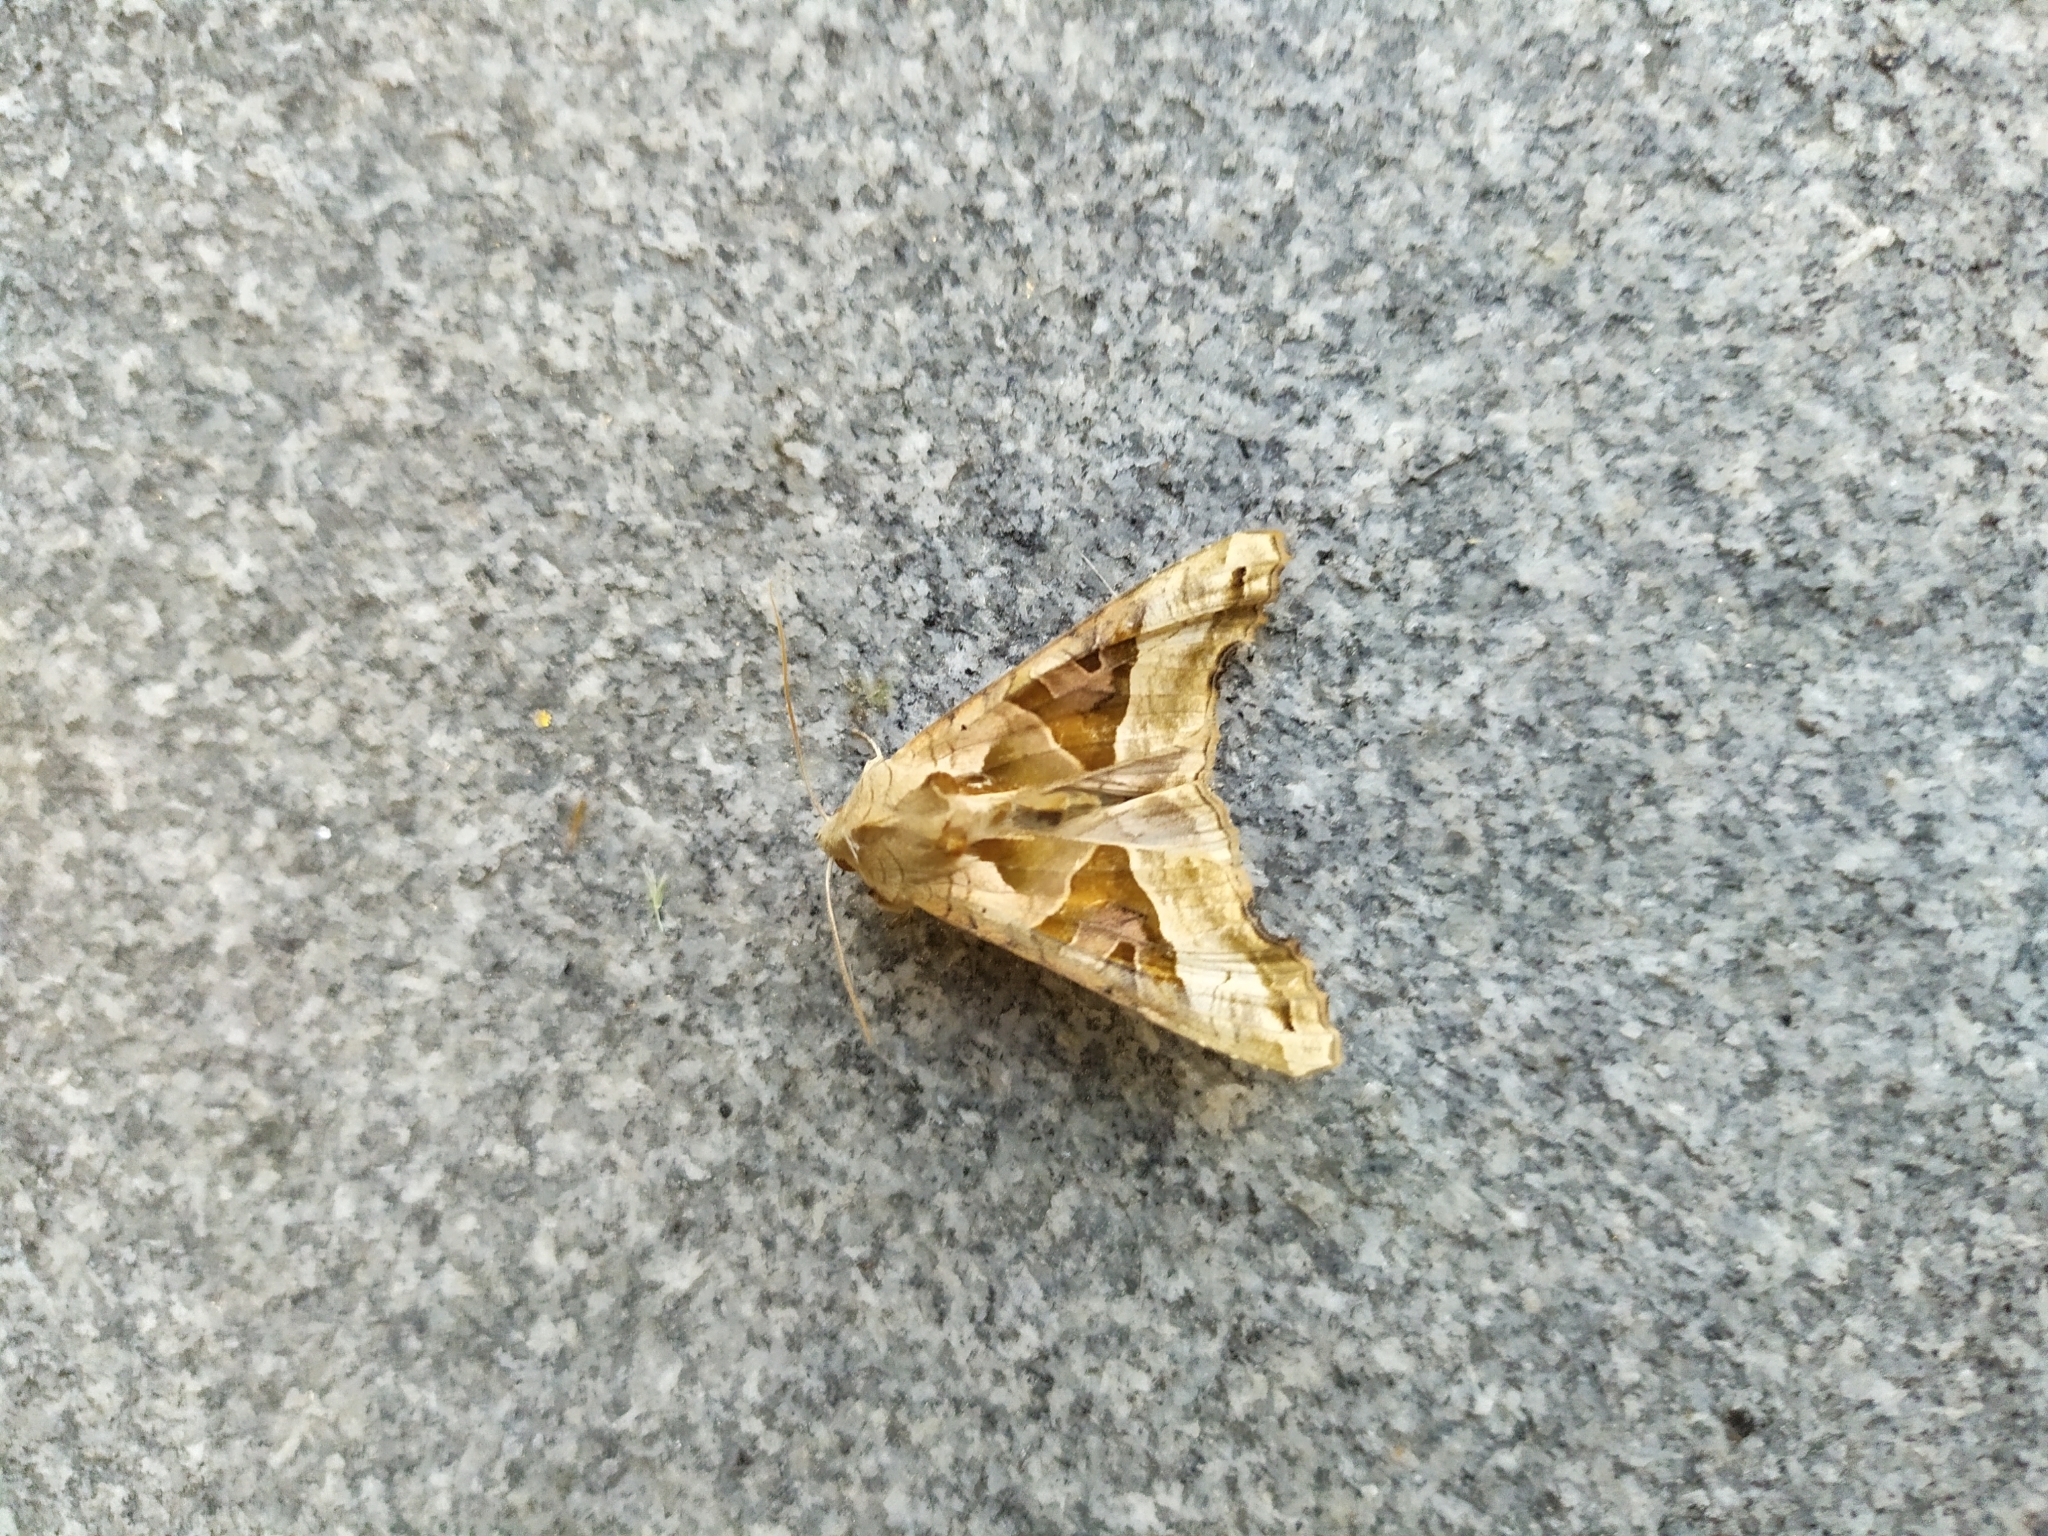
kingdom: Animalia
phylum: Arthropoda
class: Insecta
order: Lepidoptera
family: Noctuidae
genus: Phlogophora
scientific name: Phlogophora meticulosa
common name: Angle shades
